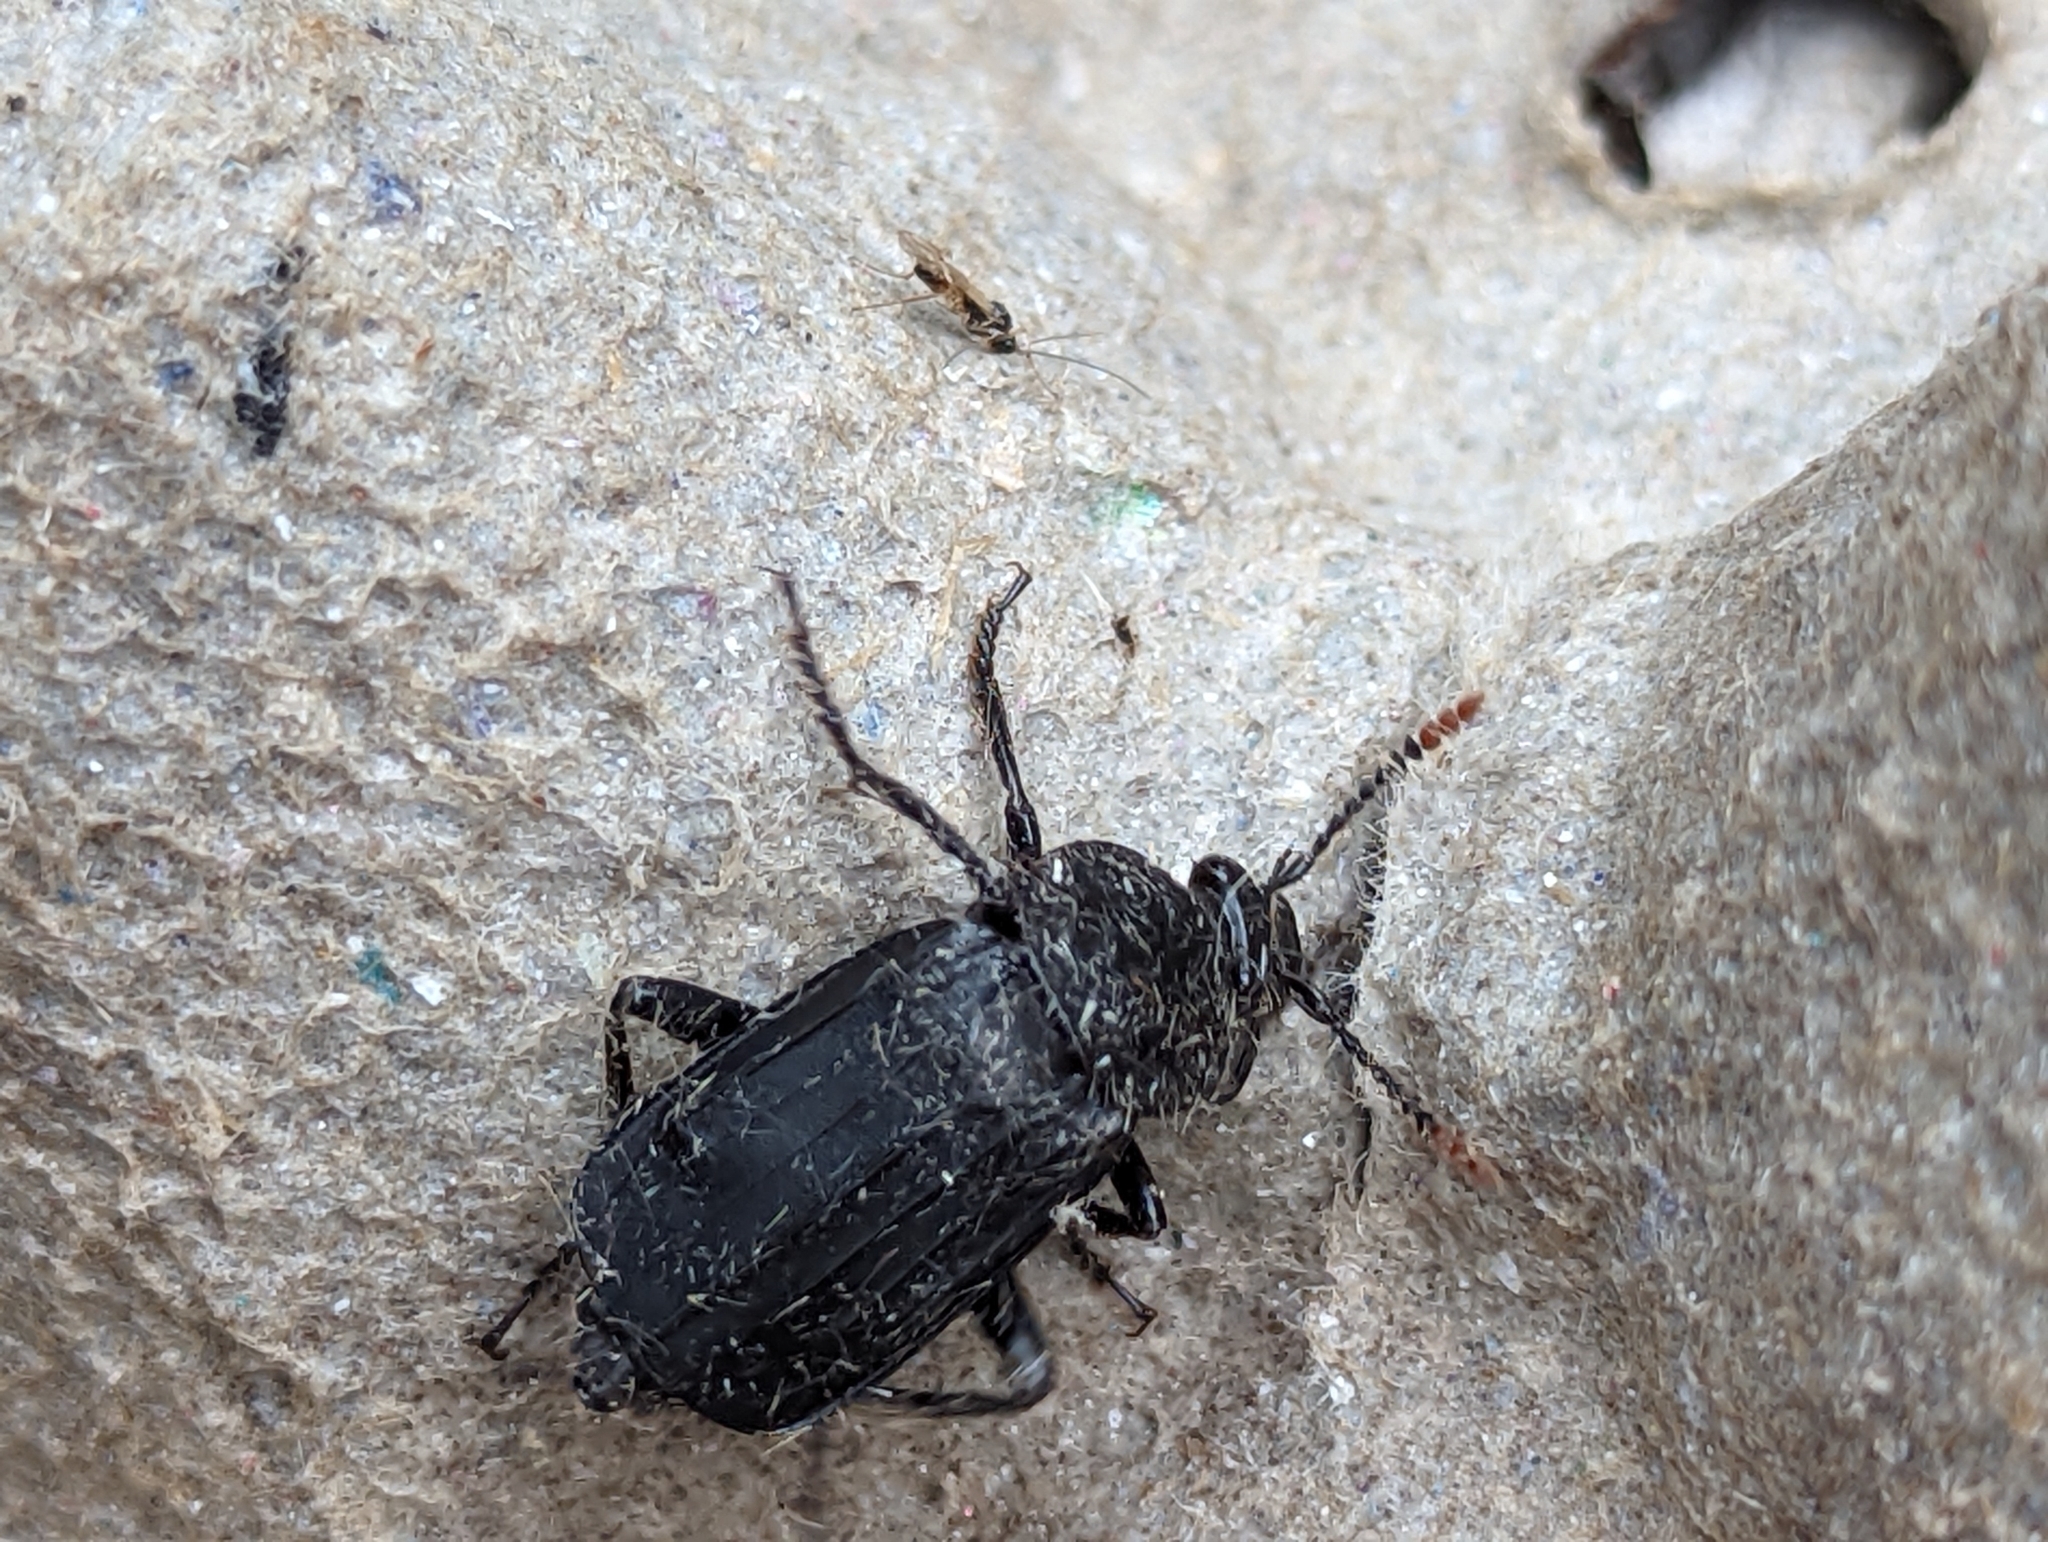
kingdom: Animalia
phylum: Arthropoda
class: Insecta
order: Coleoptera
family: Staphylinidae
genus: Necrodes
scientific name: Necrodes littoralis
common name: Shore sexton beetle
